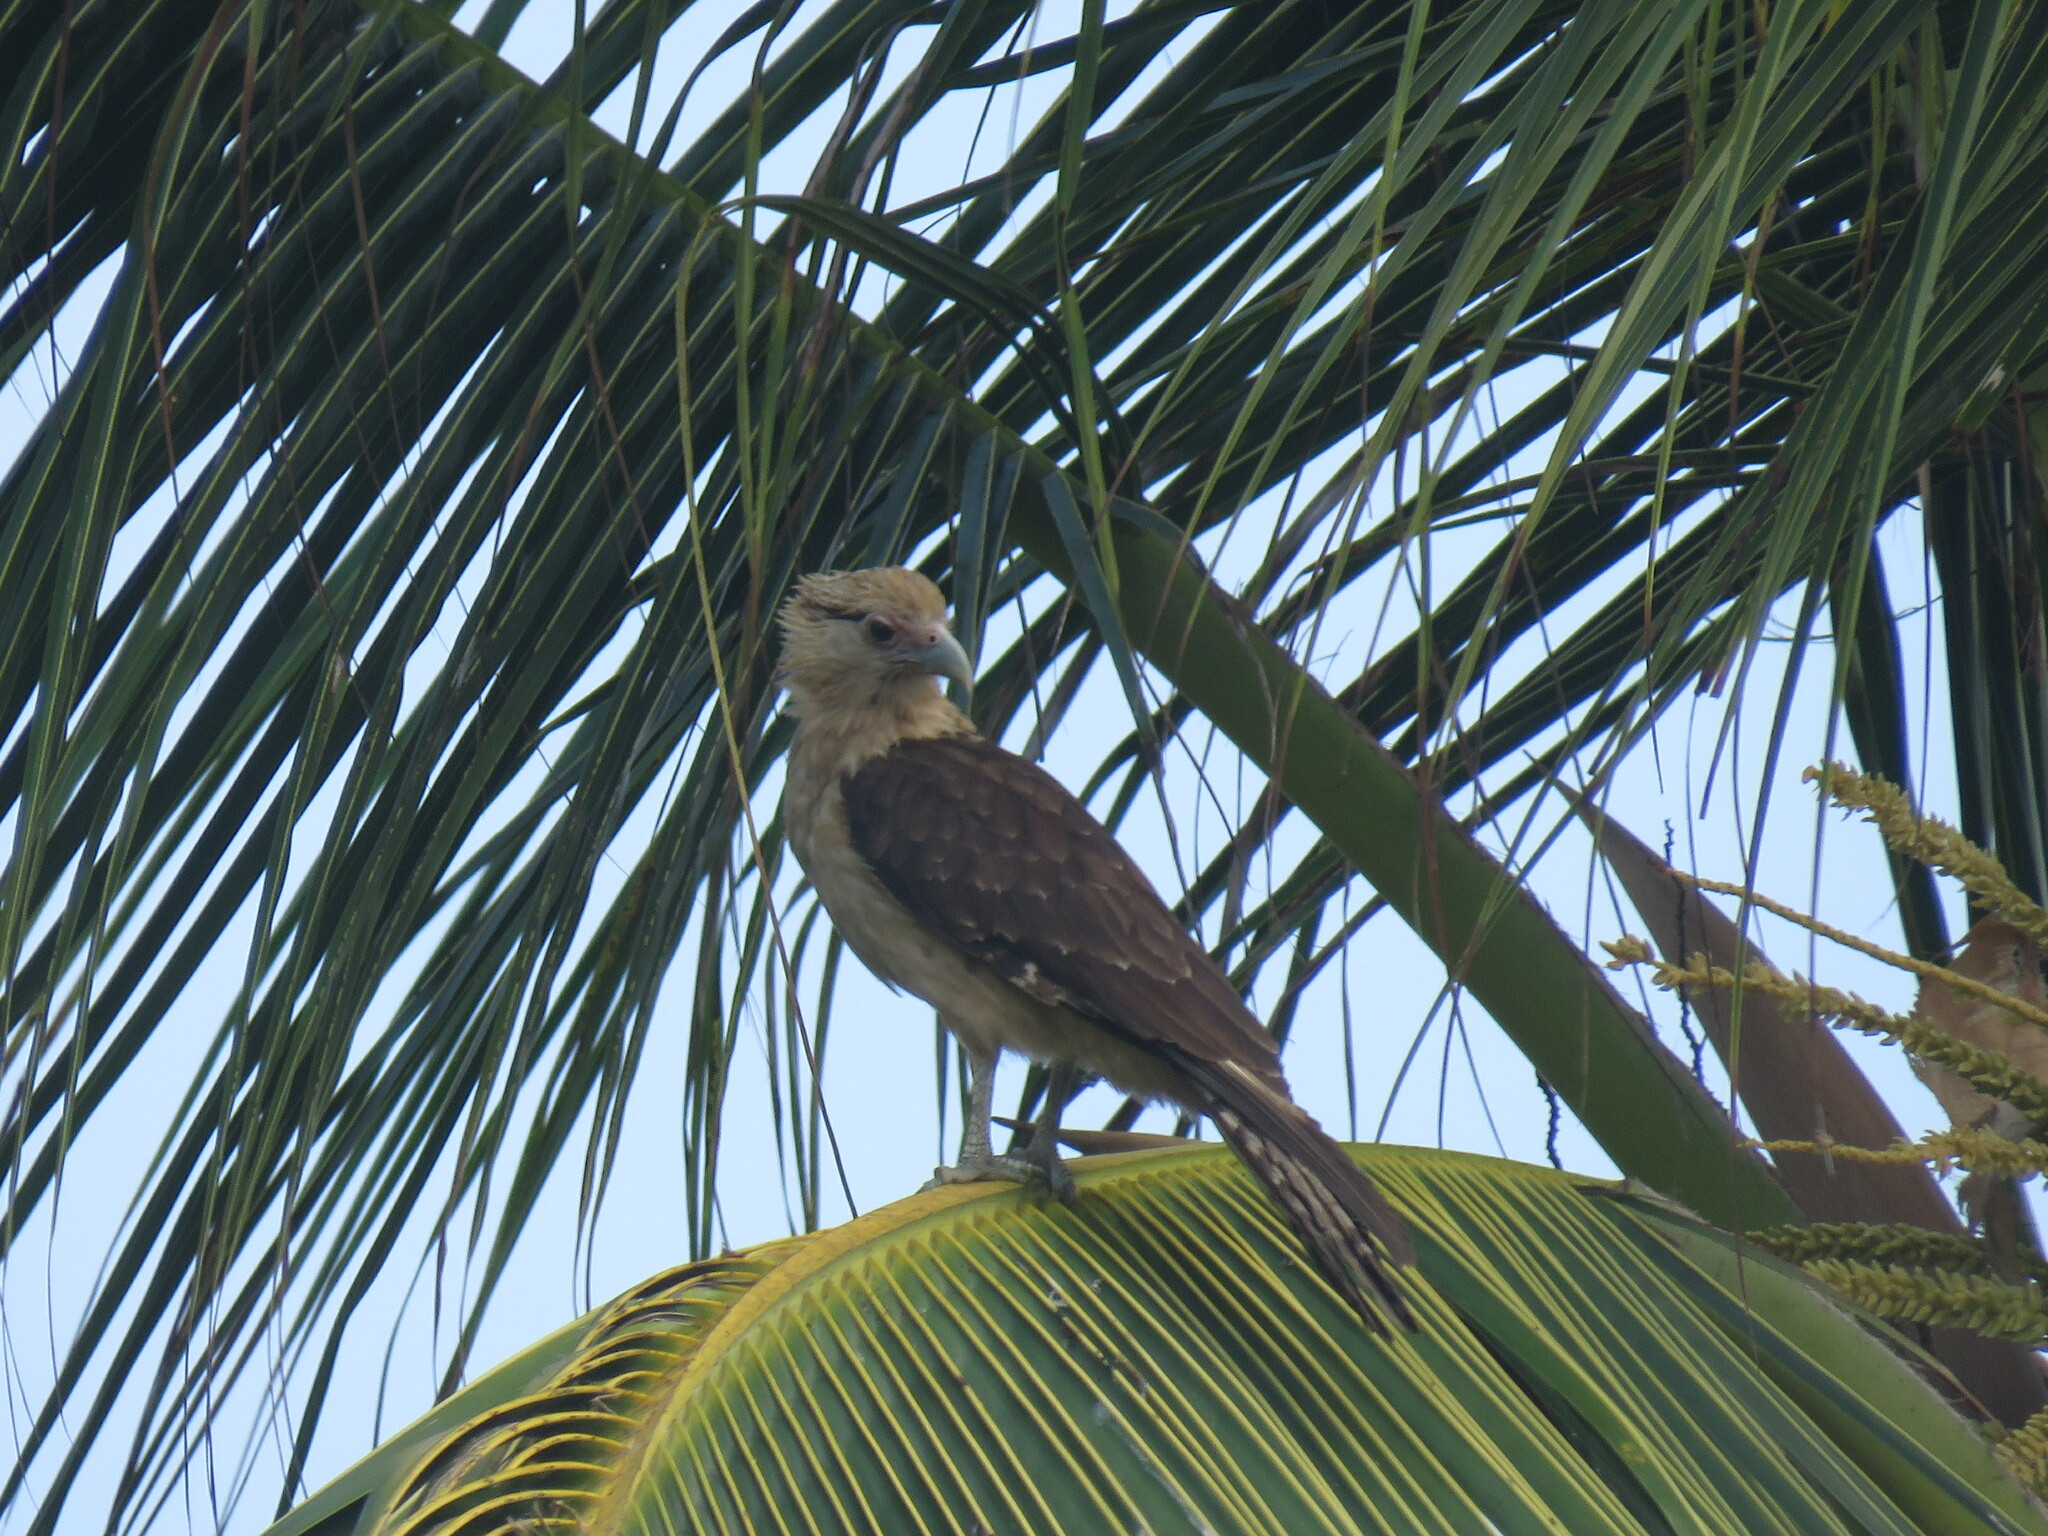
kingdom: Animalia
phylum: Chordata
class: Aves
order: Falconiformes
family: Falconidae
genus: Daptrius
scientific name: Daptrius
